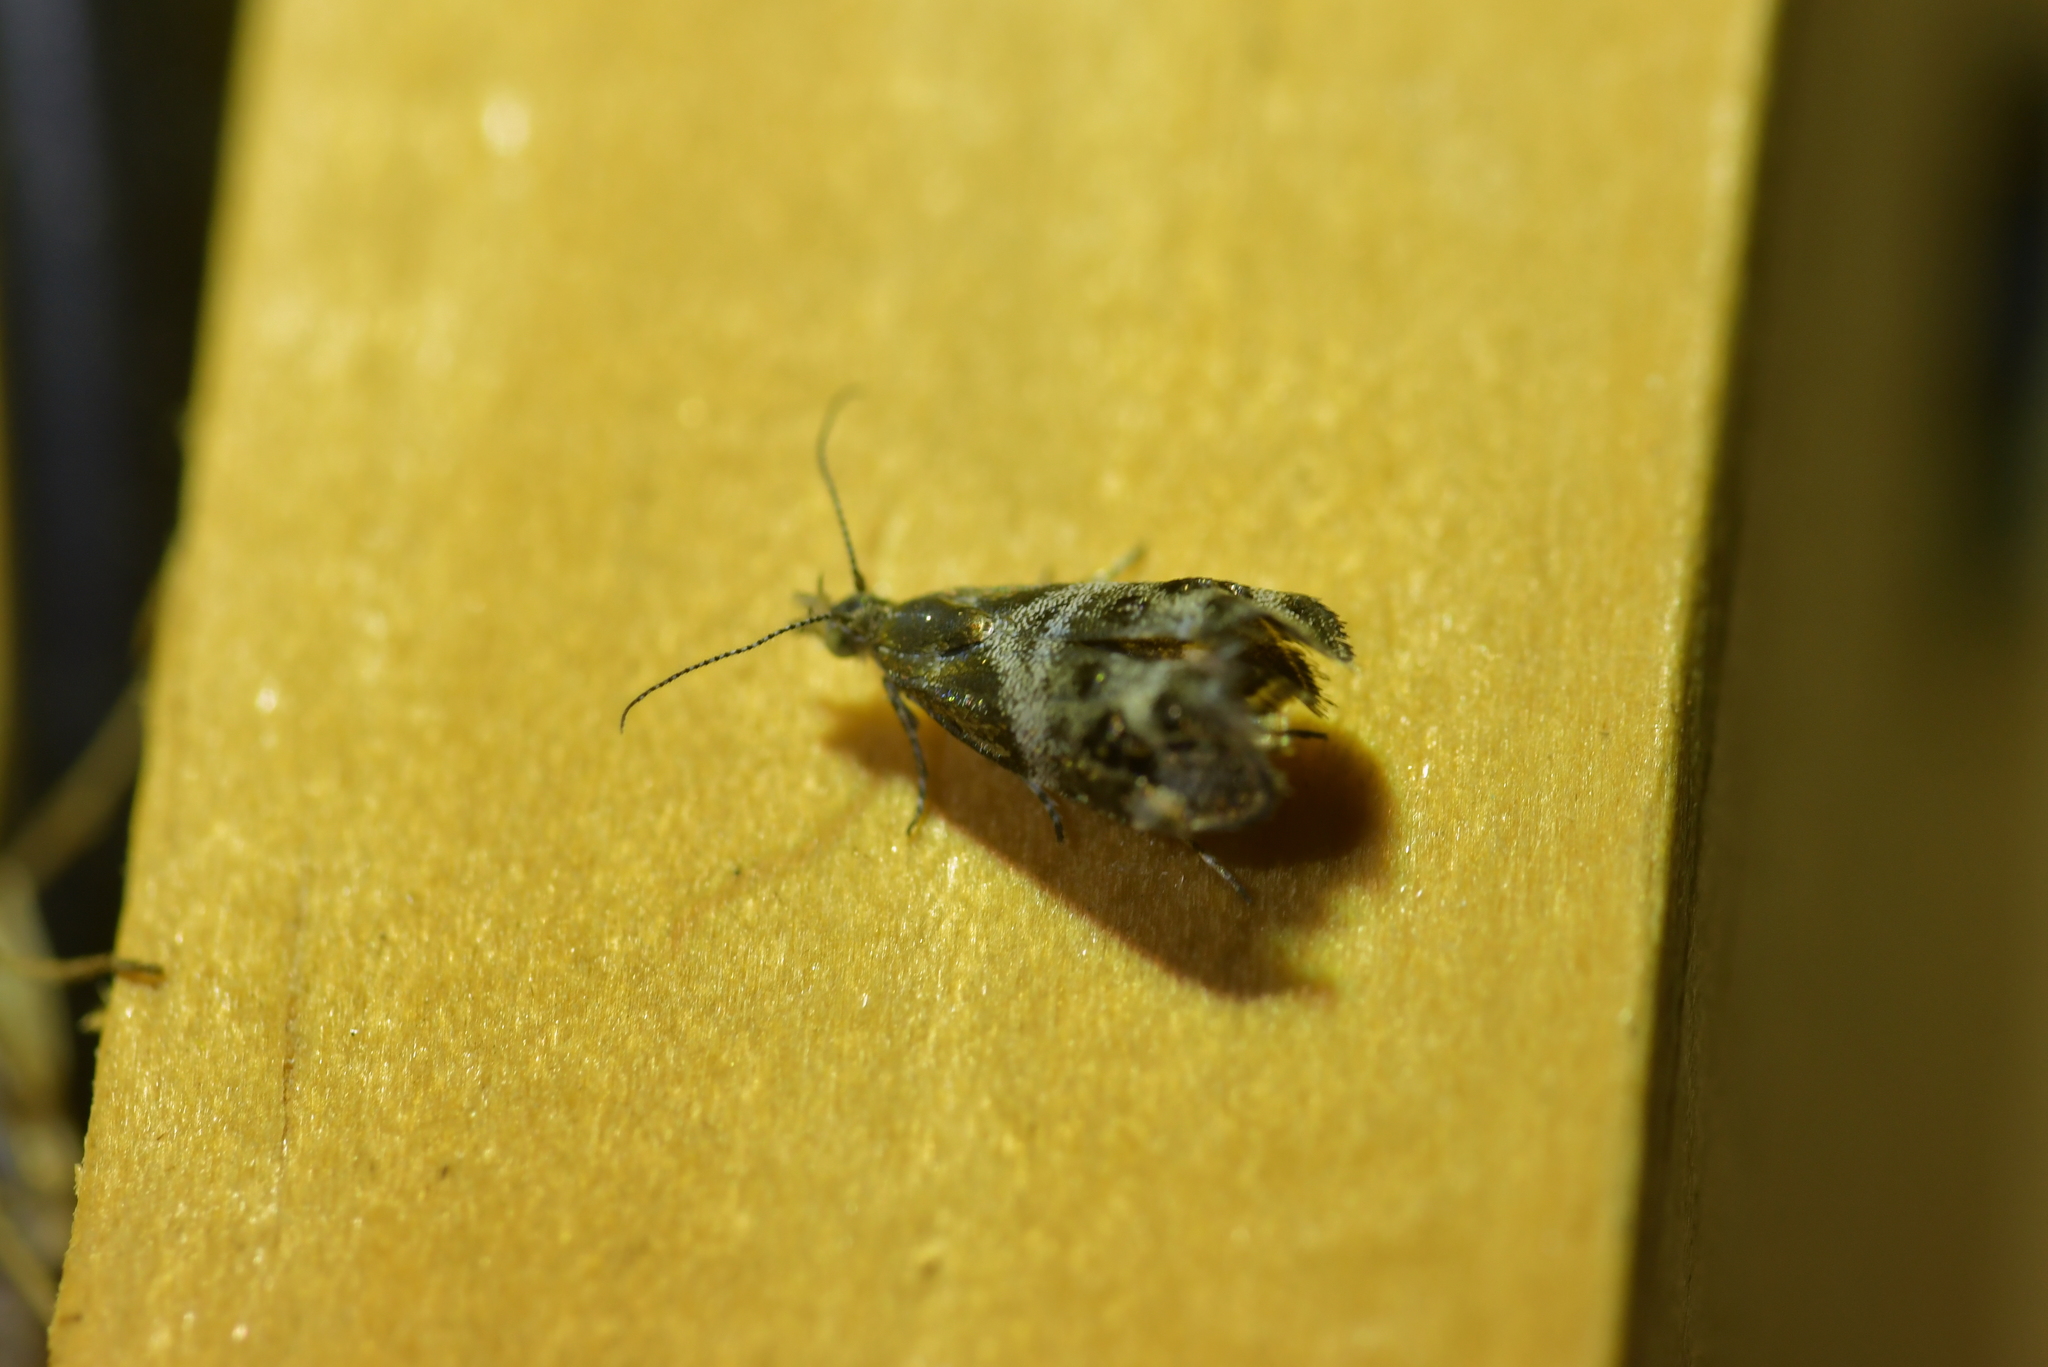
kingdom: Animalia
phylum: Arthropoda
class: Insecta
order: Lepidoptera
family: Choreutidae
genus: Tebenna
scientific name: Tebenna micalis
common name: Vagrant twitcher
